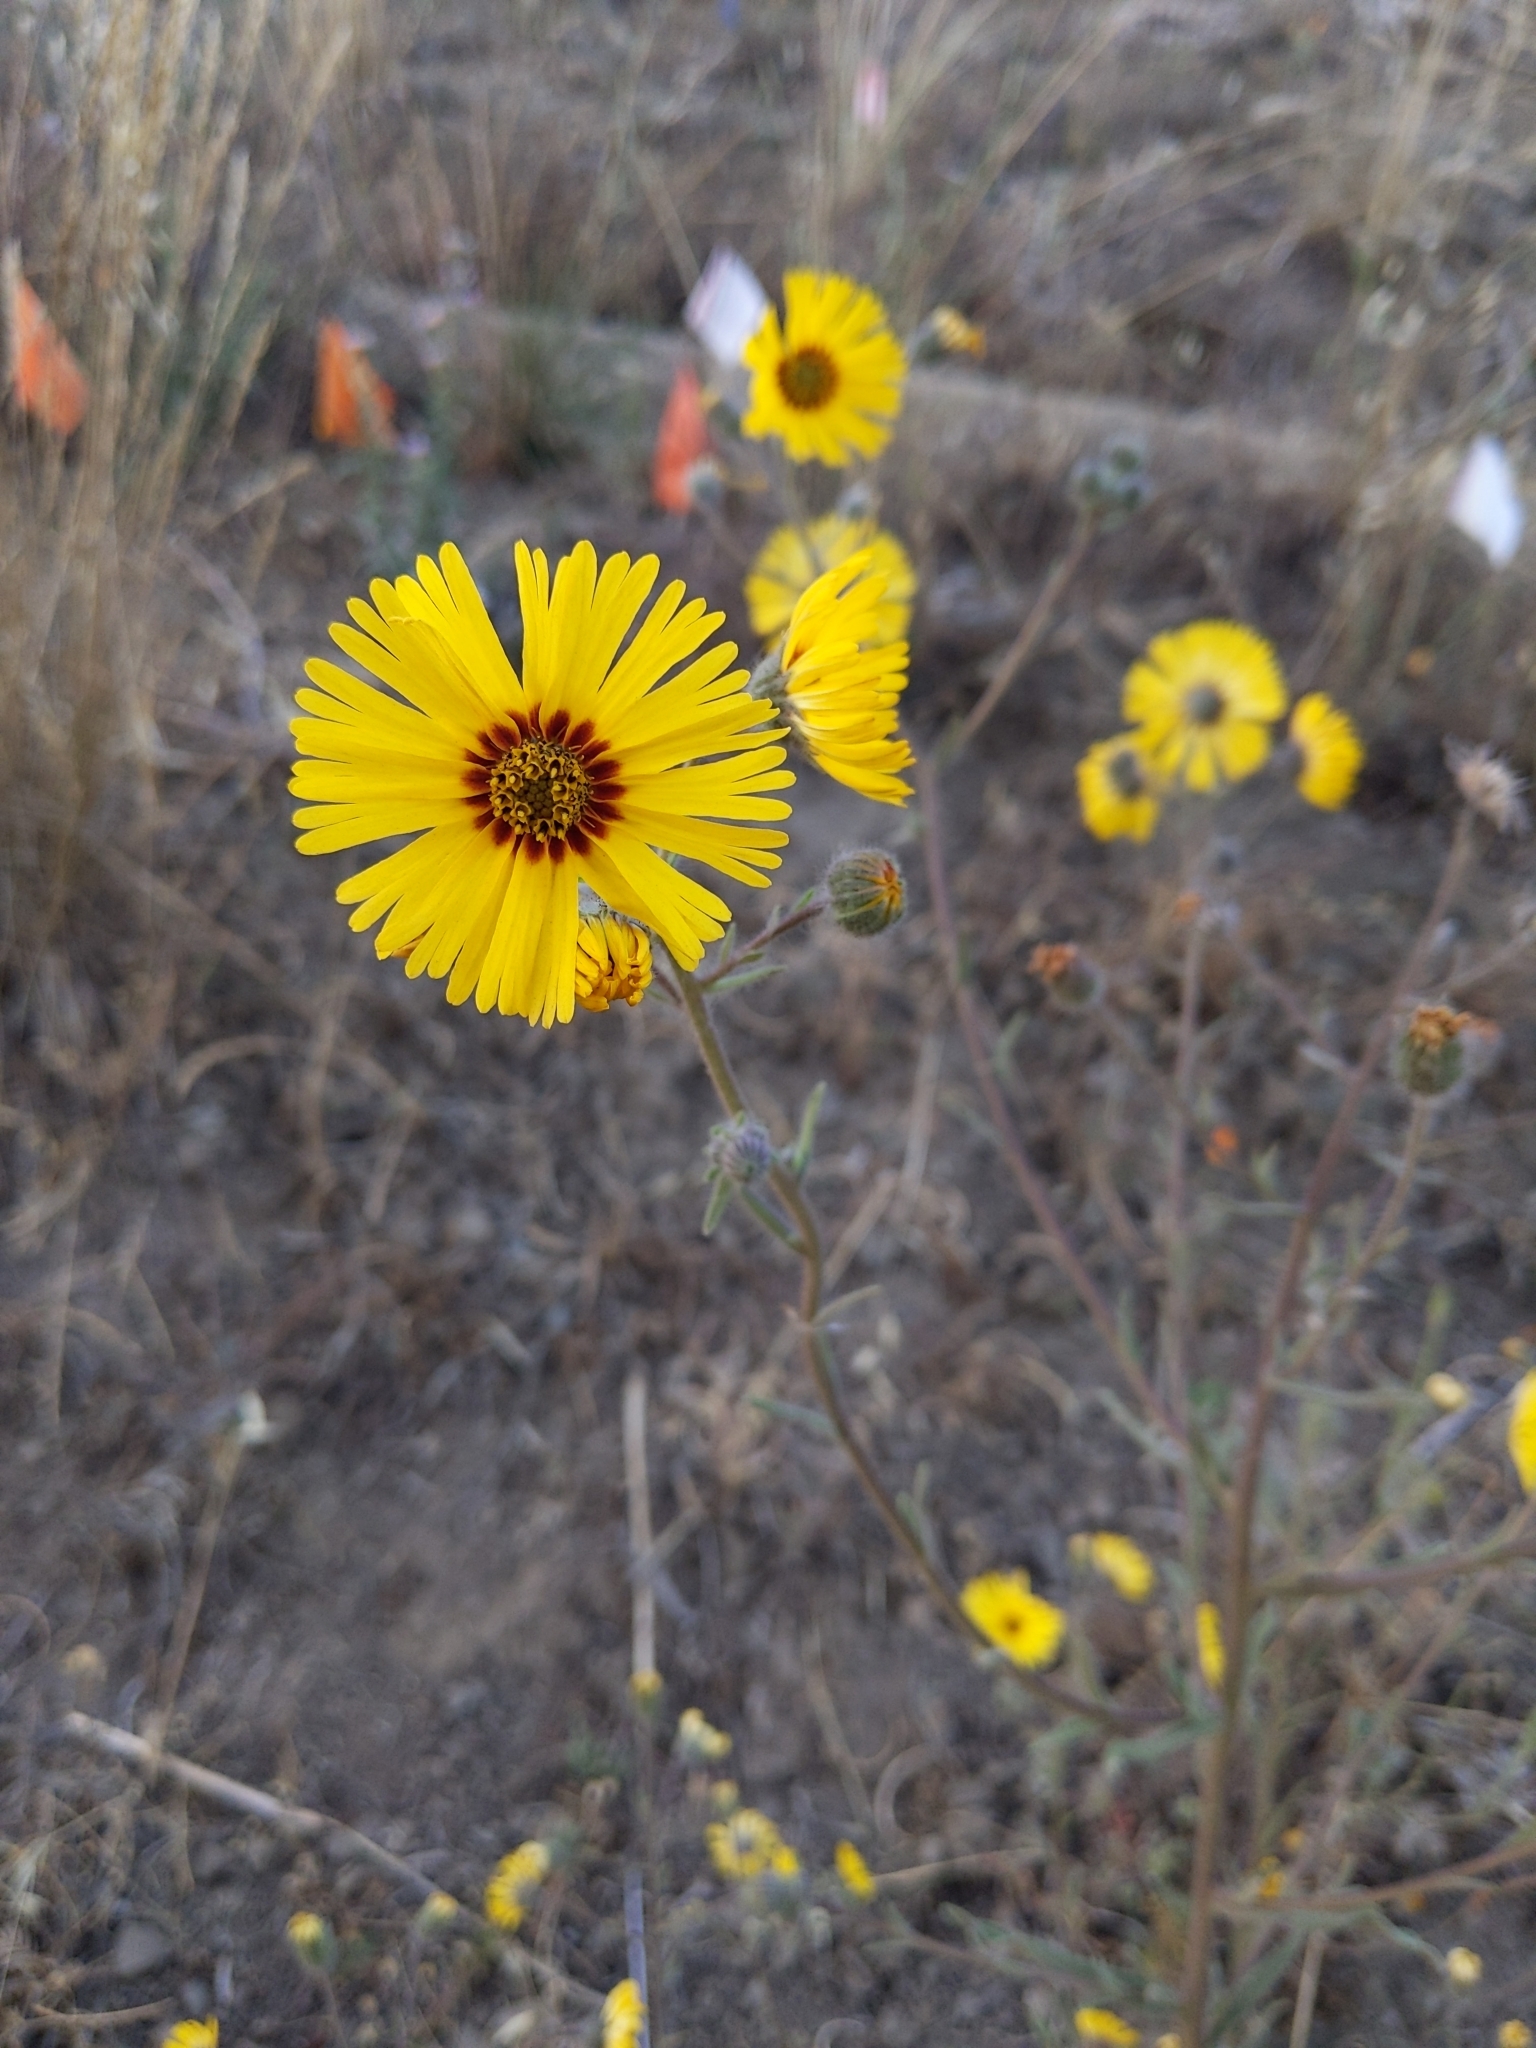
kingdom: Plantae
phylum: Tracheophyta
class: Magnoliopsida
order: Asterales
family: Asteraceae
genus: Madia
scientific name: Madia elegans
